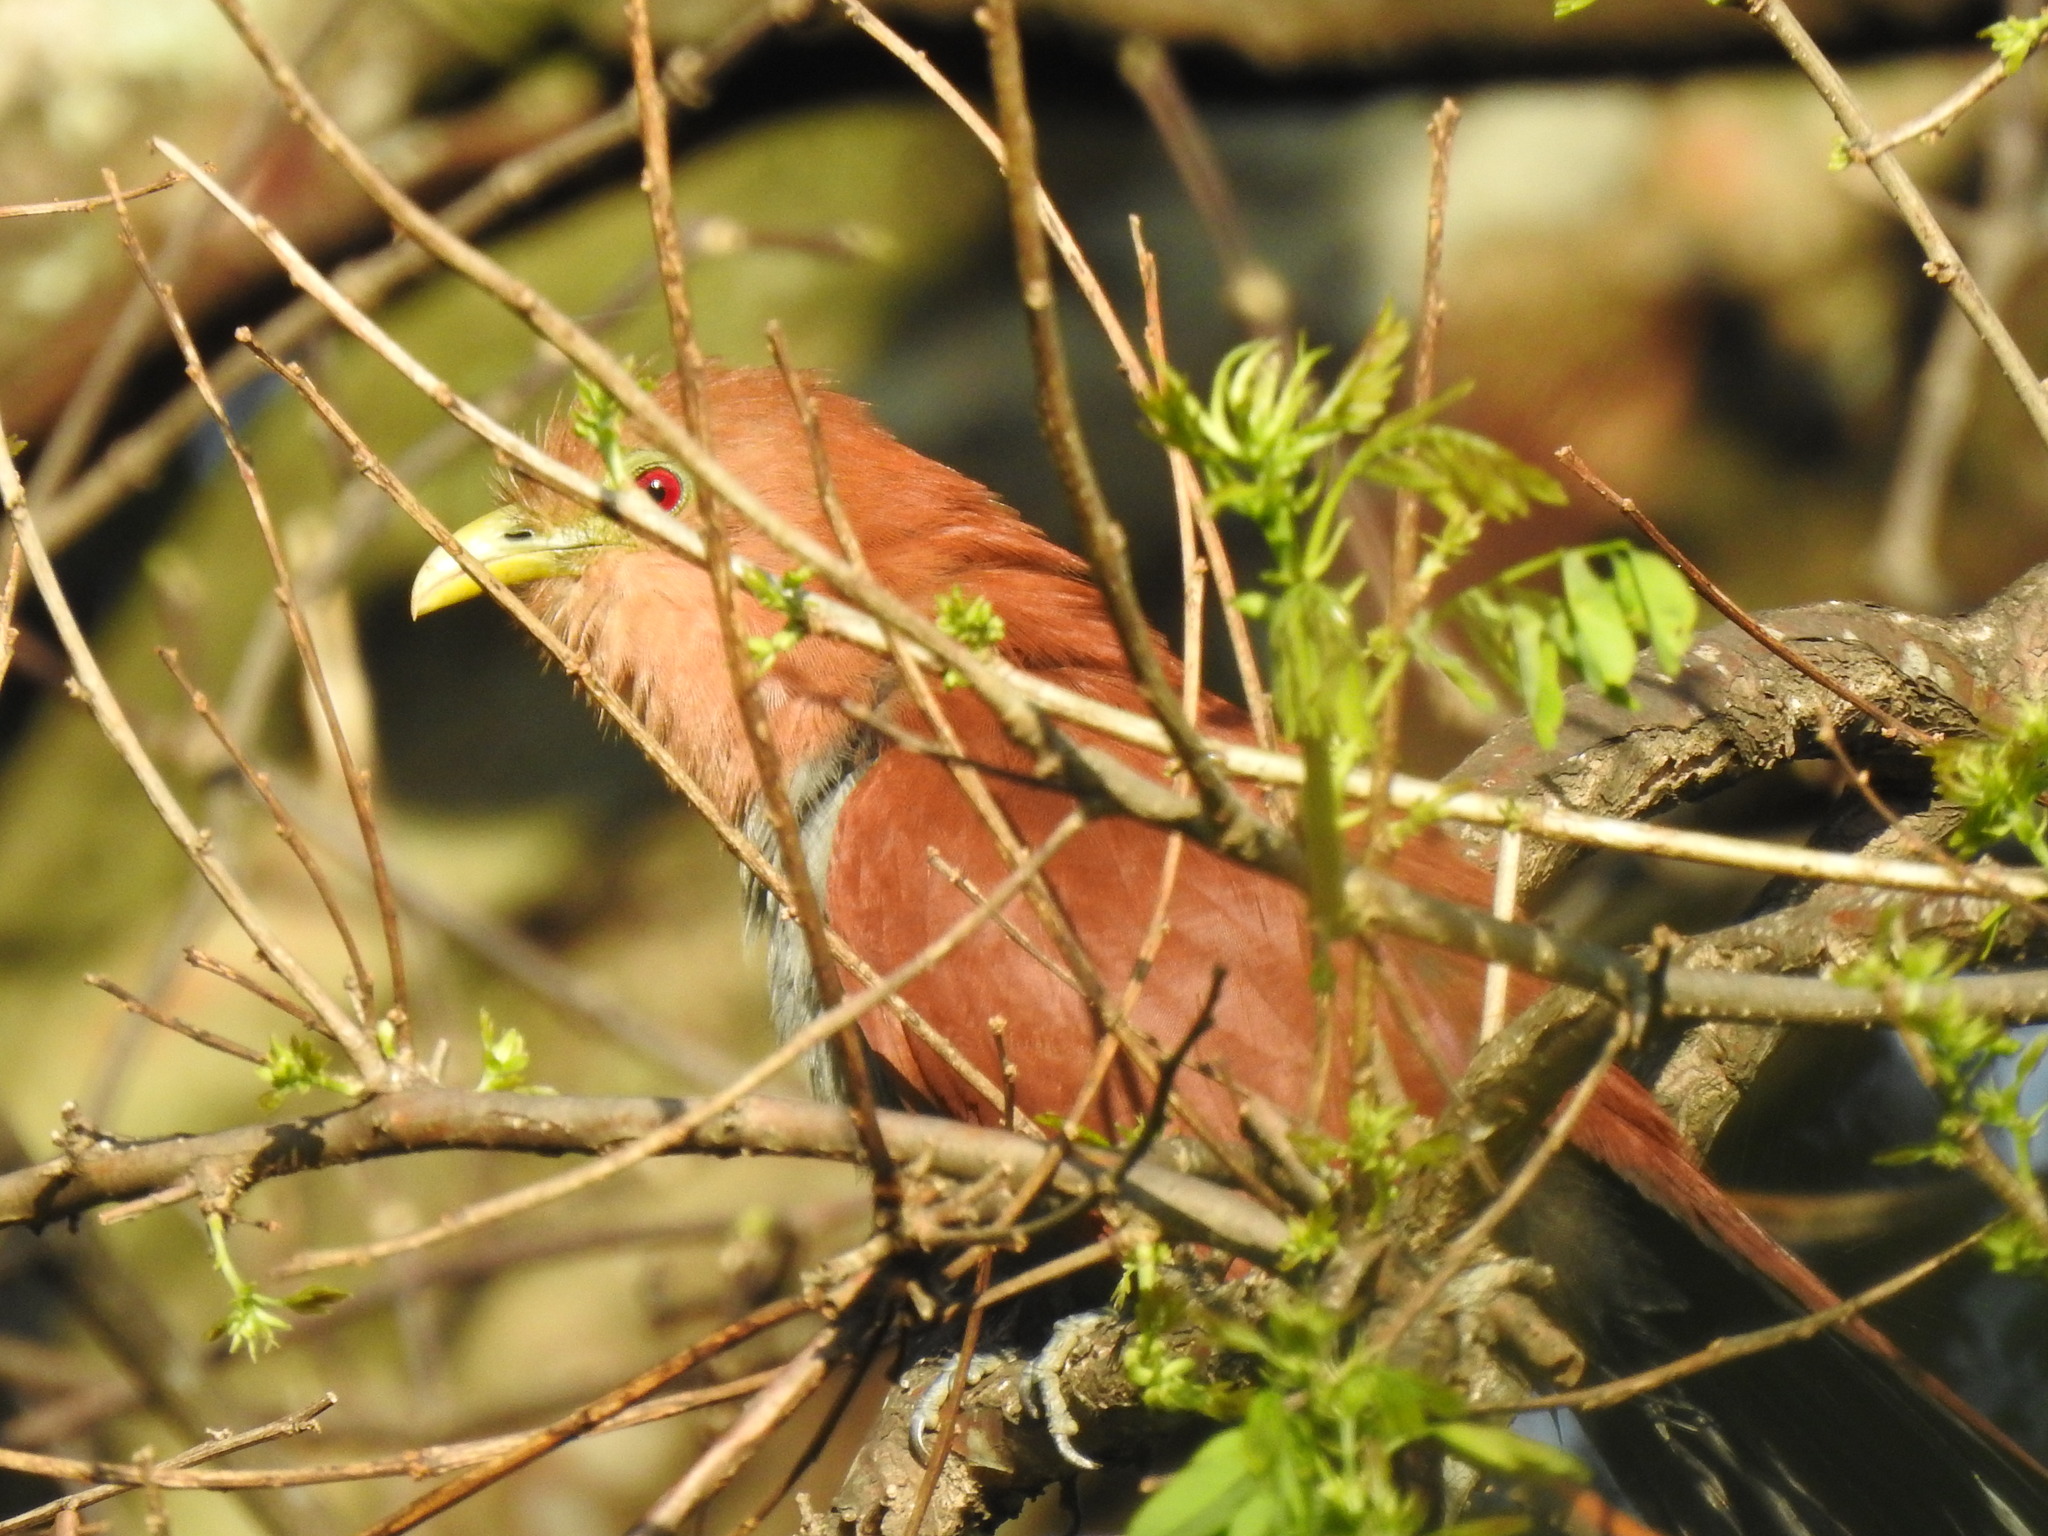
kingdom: Animalia
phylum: Chordata
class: Aves
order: Cuculiformes
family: Cuculidae
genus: Piaya
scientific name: Piaya cayana
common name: Squirrel cuckoo
